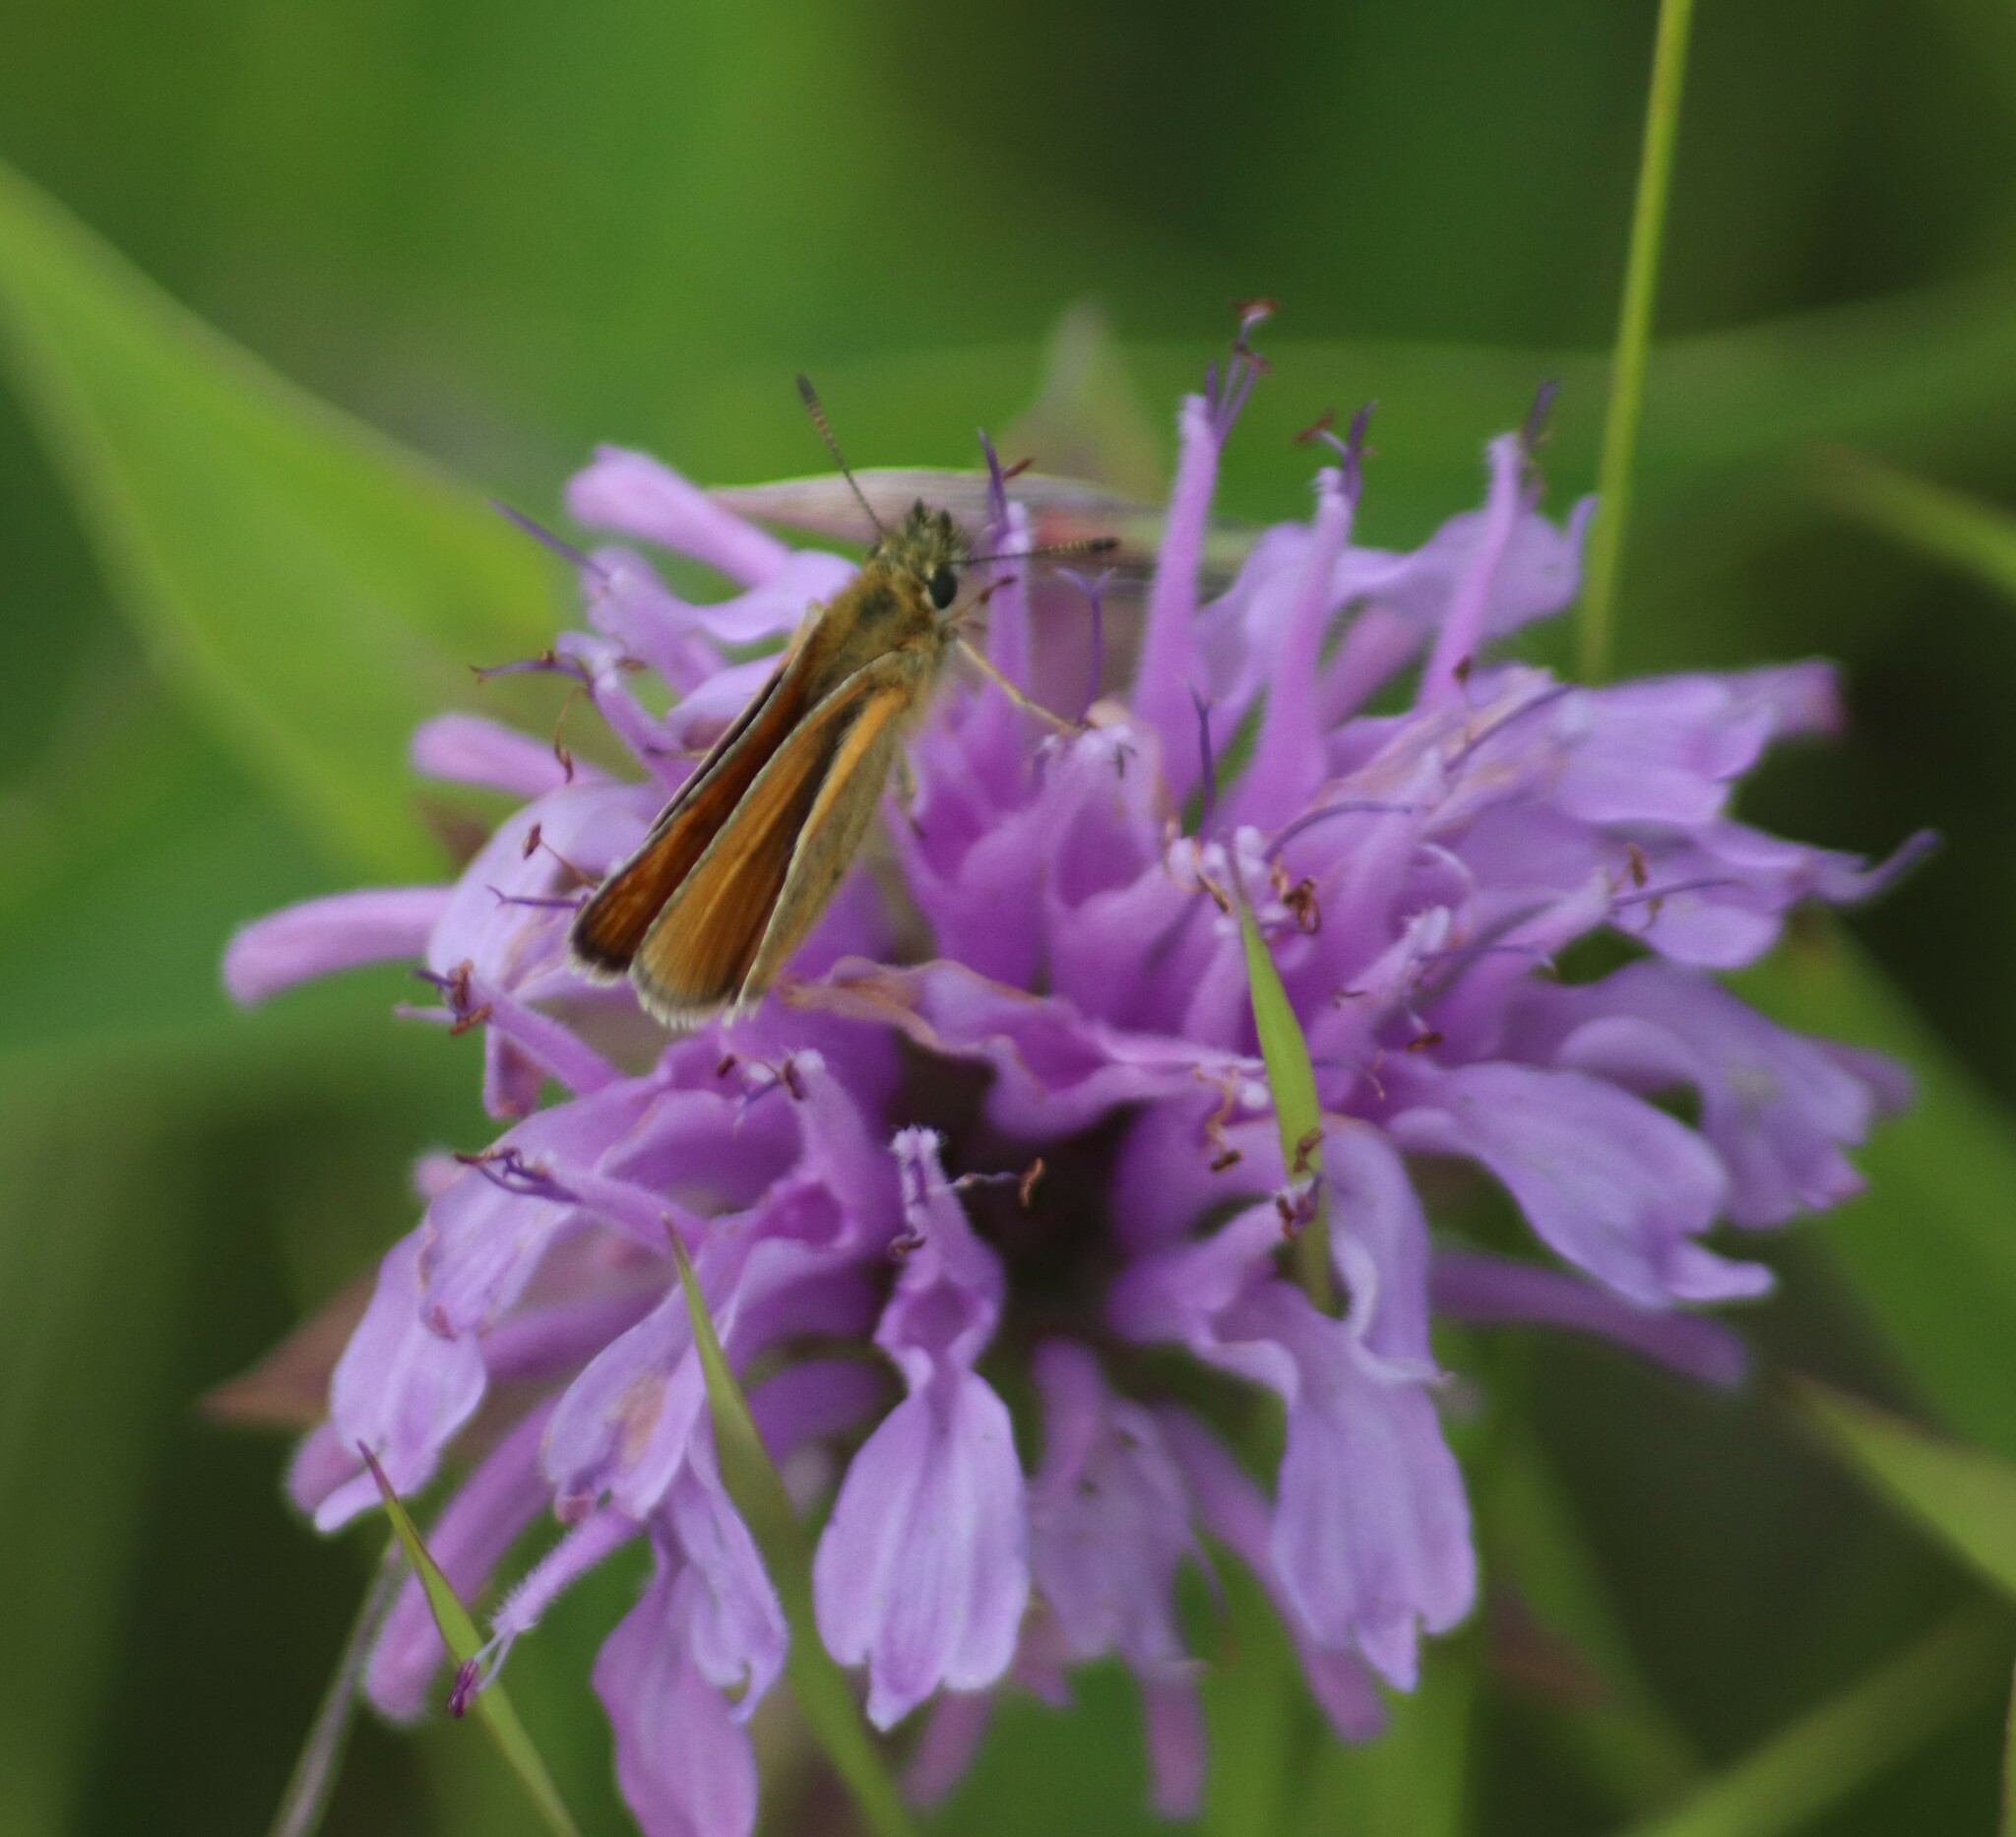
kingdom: Animalia
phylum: Arthropoda
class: Insecta
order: Lepidoptera
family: Hesperiidae
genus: Thymelicus
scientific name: Thymelicus lineola
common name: Essex skipper
